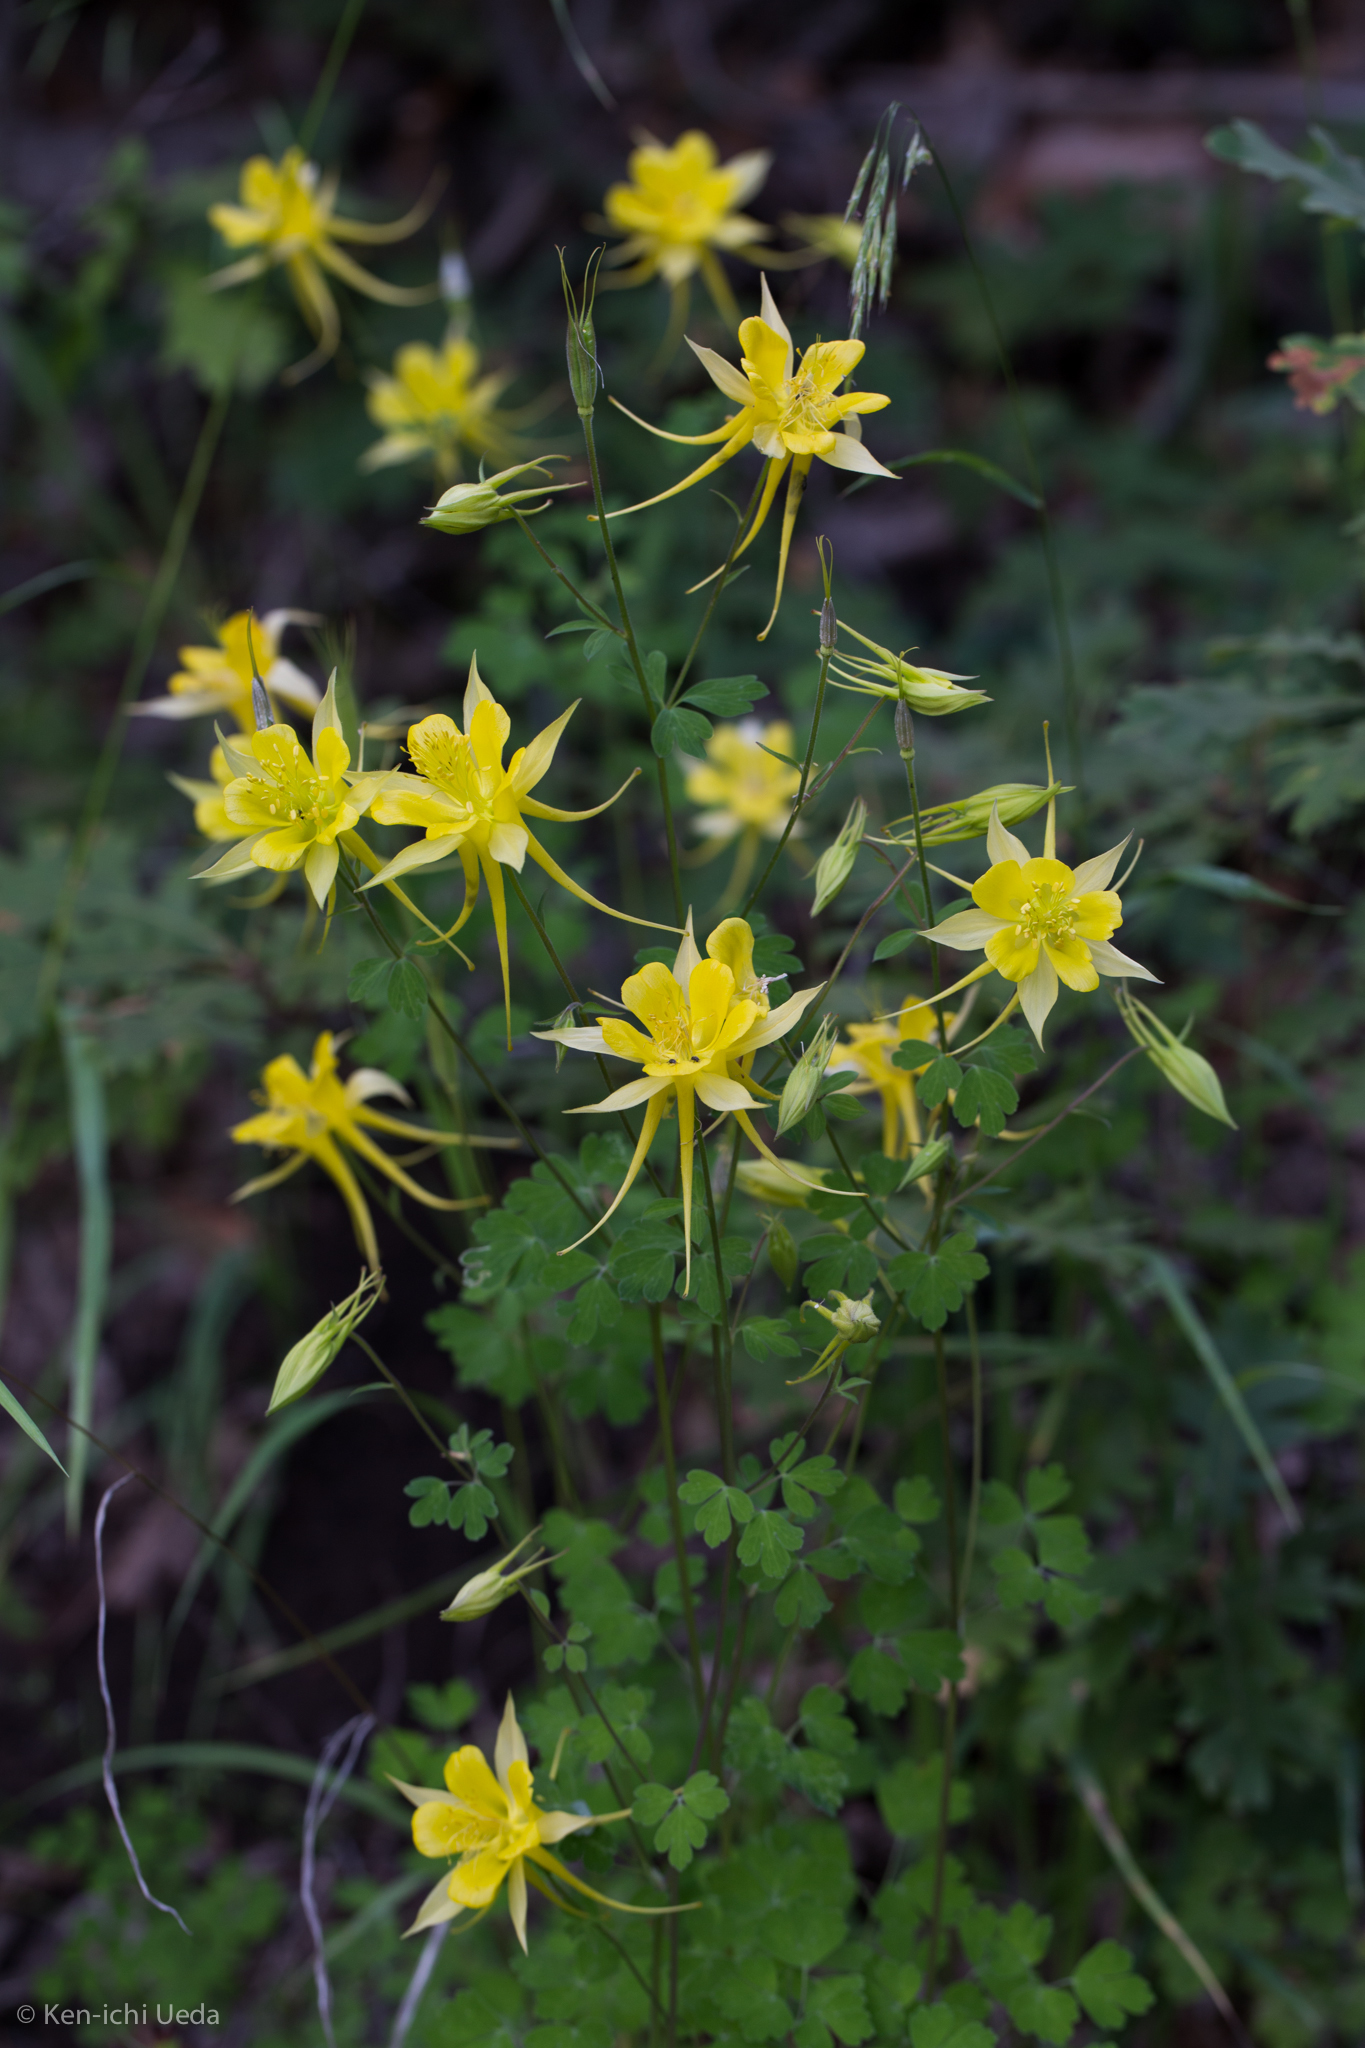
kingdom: Plantae
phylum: Tracheophyta
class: Magnoliopsida
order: Ranunculales
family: Ranunculaceae
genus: Aquilegia
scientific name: Aquilegia chrysantha
